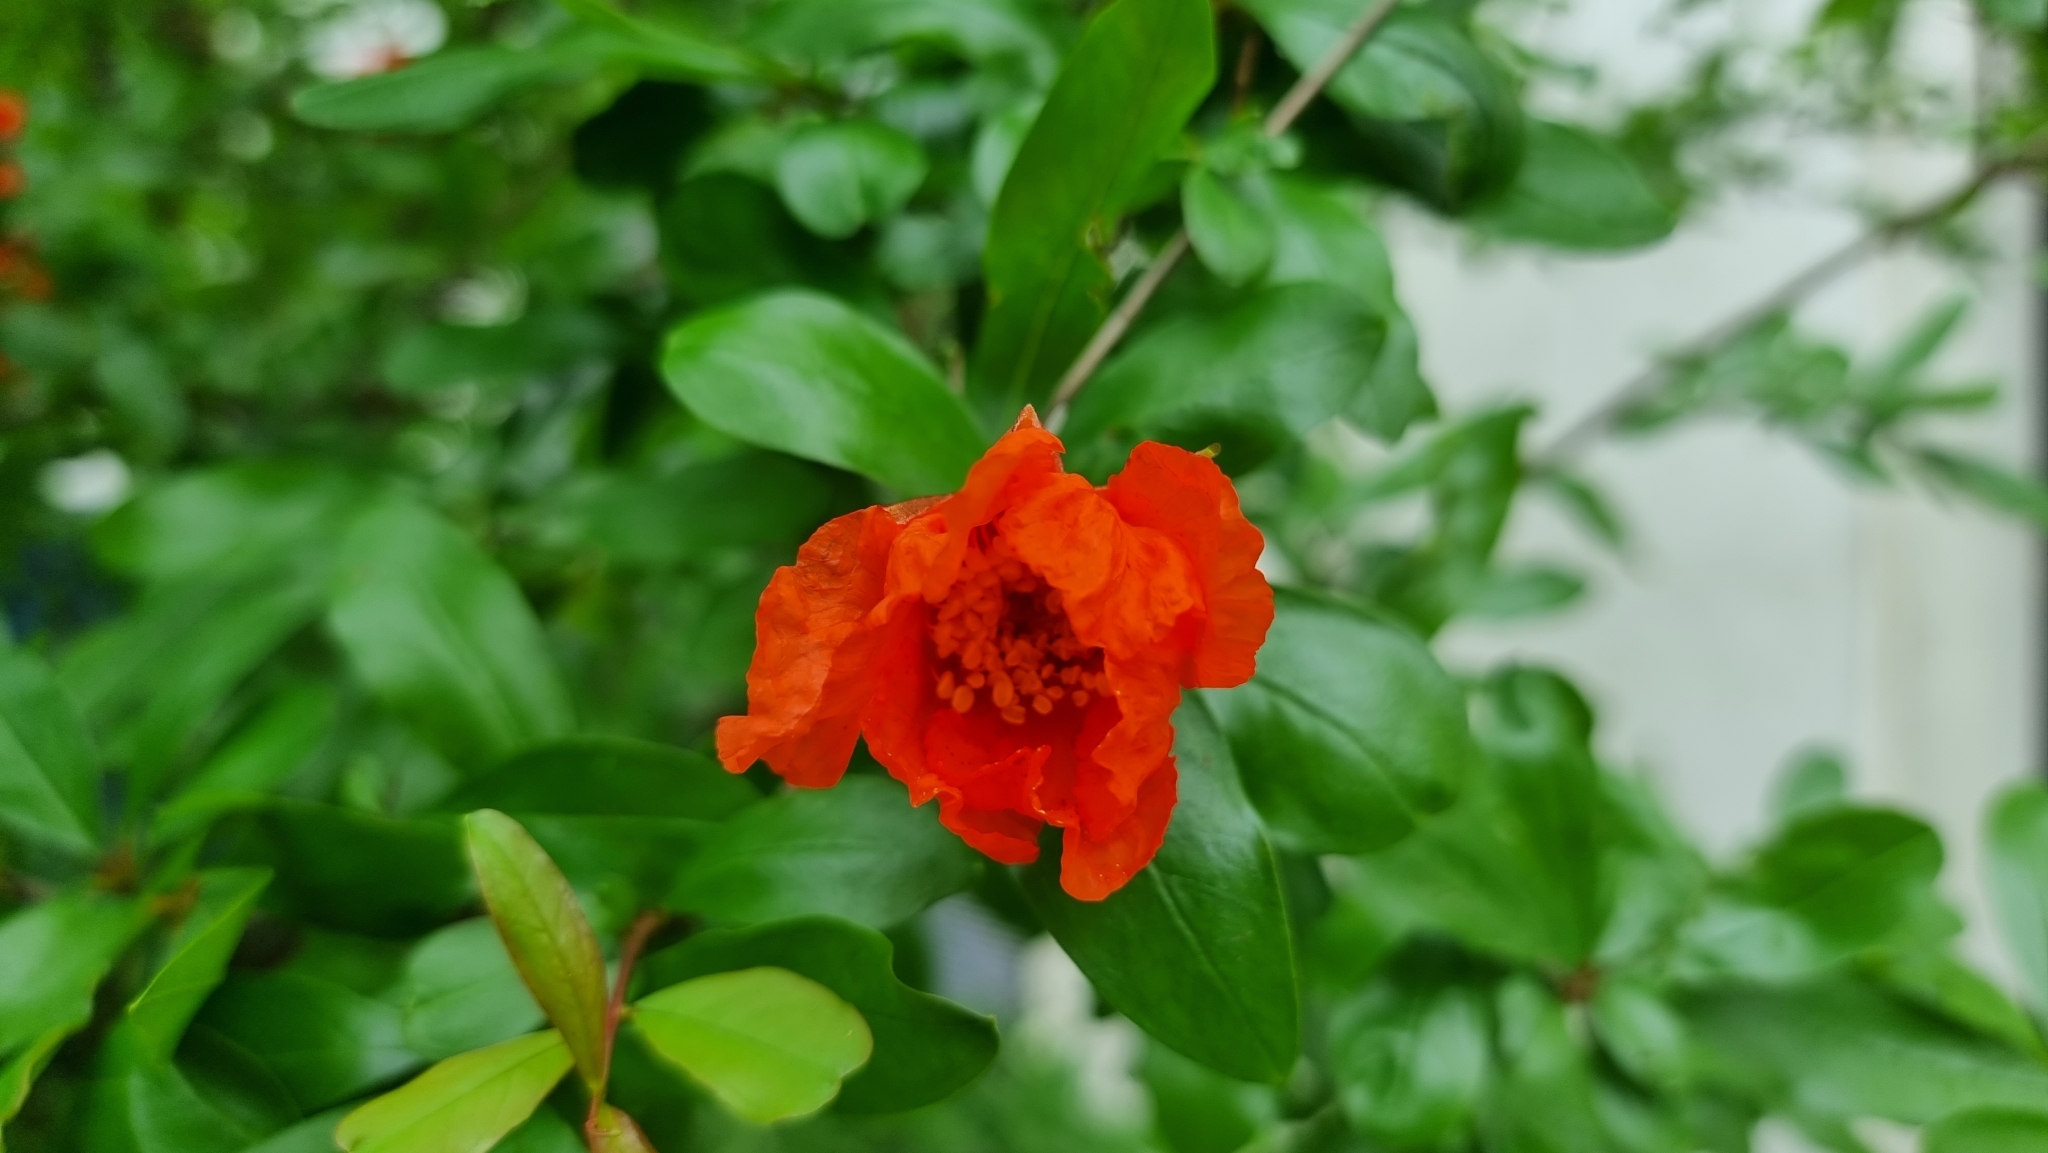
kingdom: Plantae
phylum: Tracheophyta
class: Magnoliopsida
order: Myrtales
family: Lythraceae
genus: Punica
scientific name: Punica granatum
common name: Pomegranate
